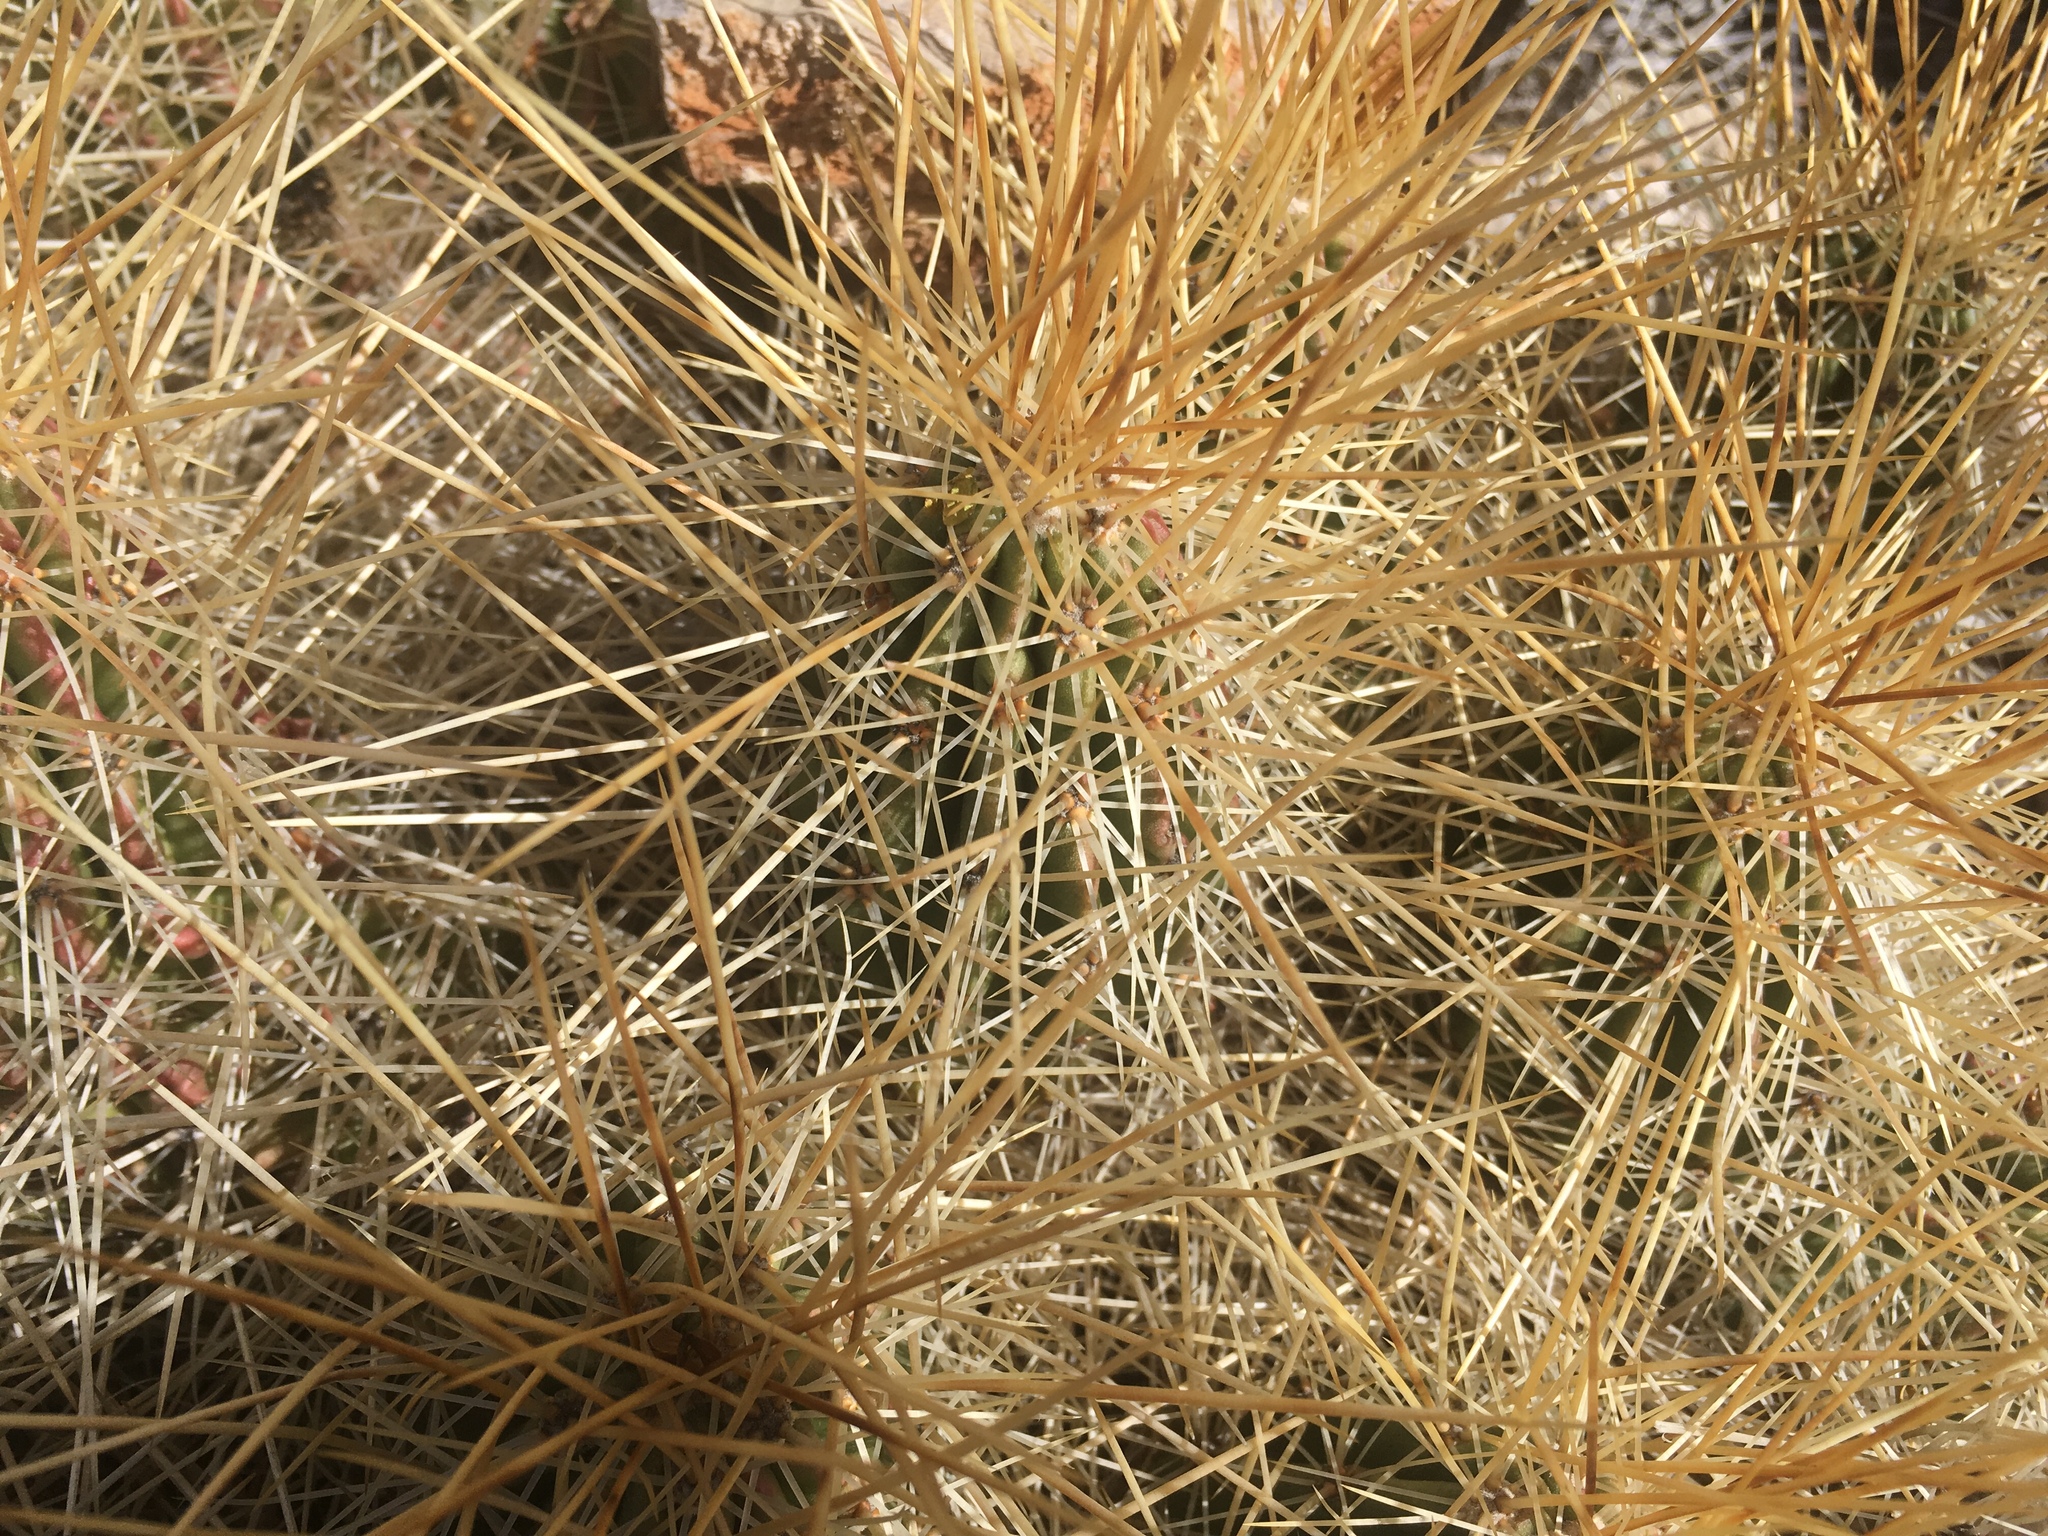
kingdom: Plantae
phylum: Tracheophyta
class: Magnoliopsida
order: Caryophyllales
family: Cactaceae
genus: Echinocereus
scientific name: Echinocereus stramineus
